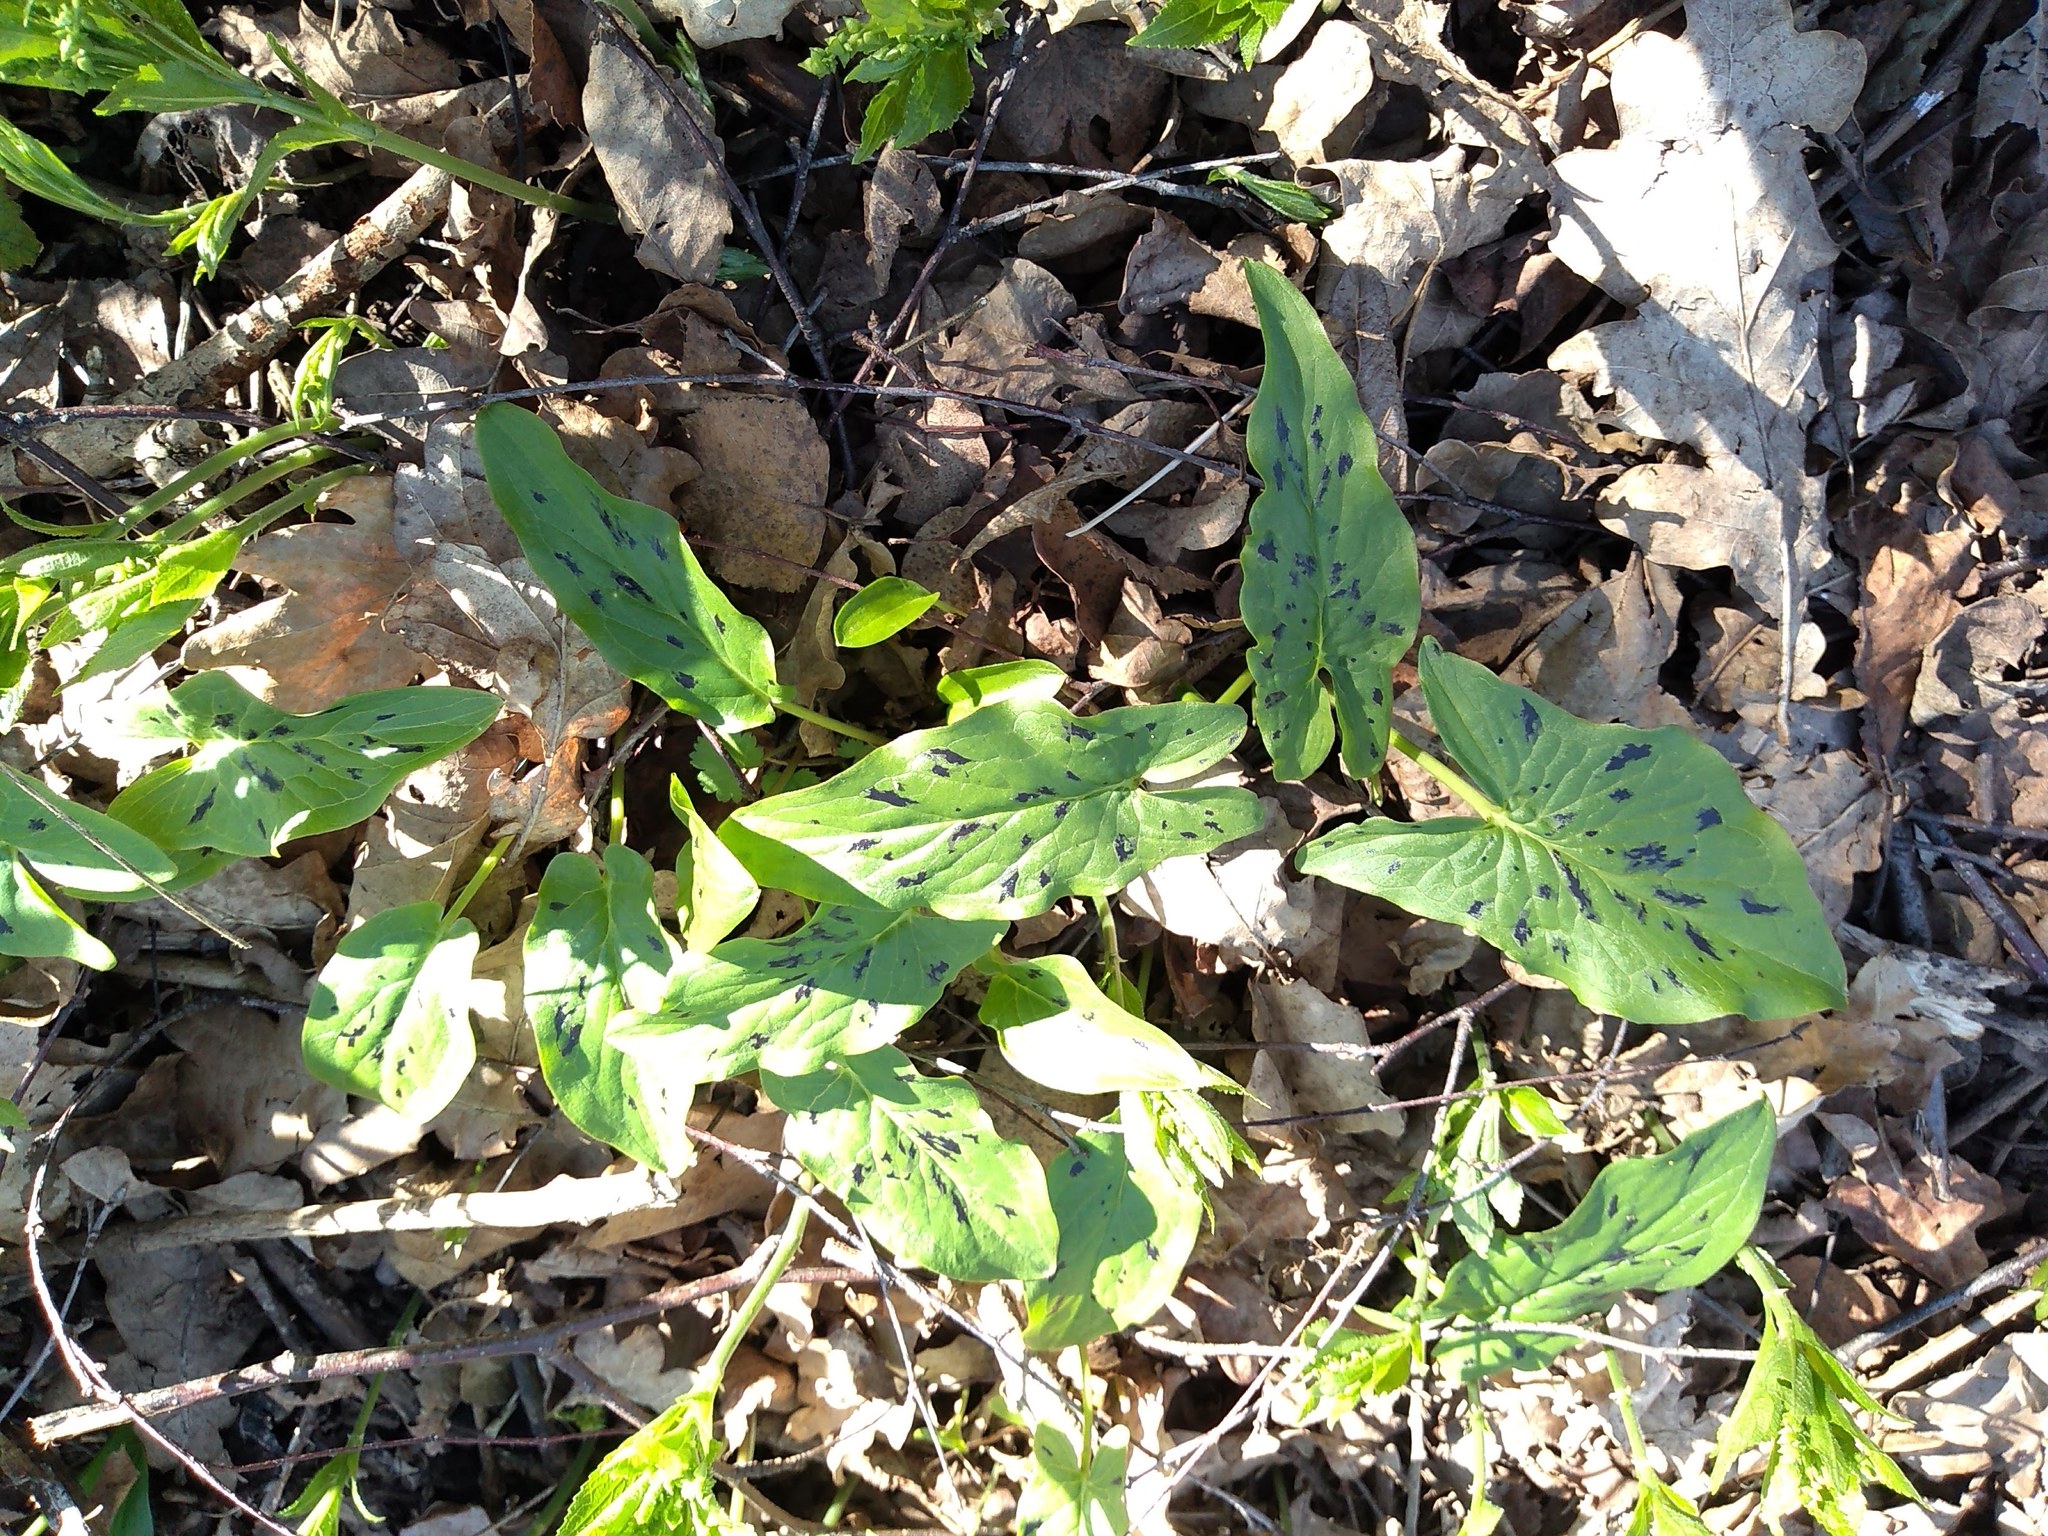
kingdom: Plantae
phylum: Tracheophyta
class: Liliopsida
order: Alismatales
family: Araceae
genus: Arum
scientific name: Arum maculatum
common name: Lords-and-ladies
